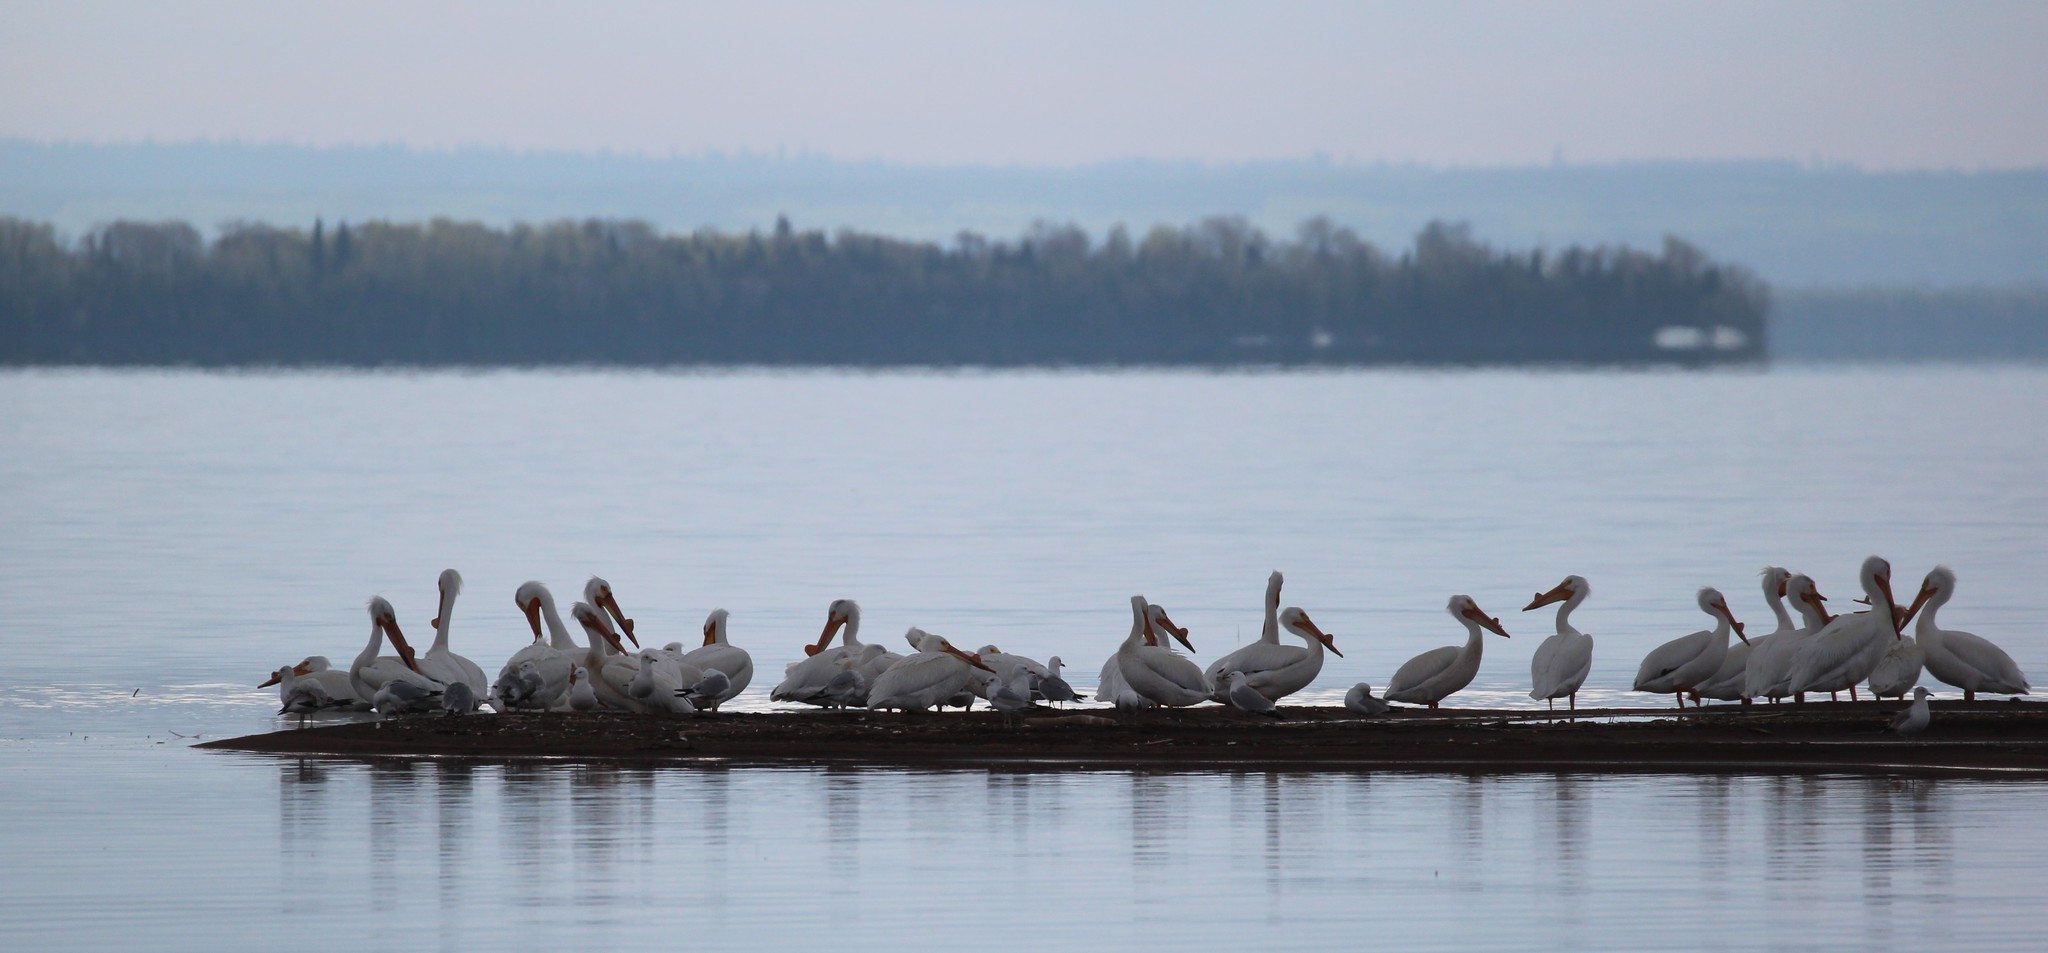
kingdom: Animalia
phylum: Chordata
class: Aves
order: Pelecaniformes
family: Pelecanidae
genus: Pelecanus
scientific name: Pelecanus erythrorhynchos
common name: American white pelican
